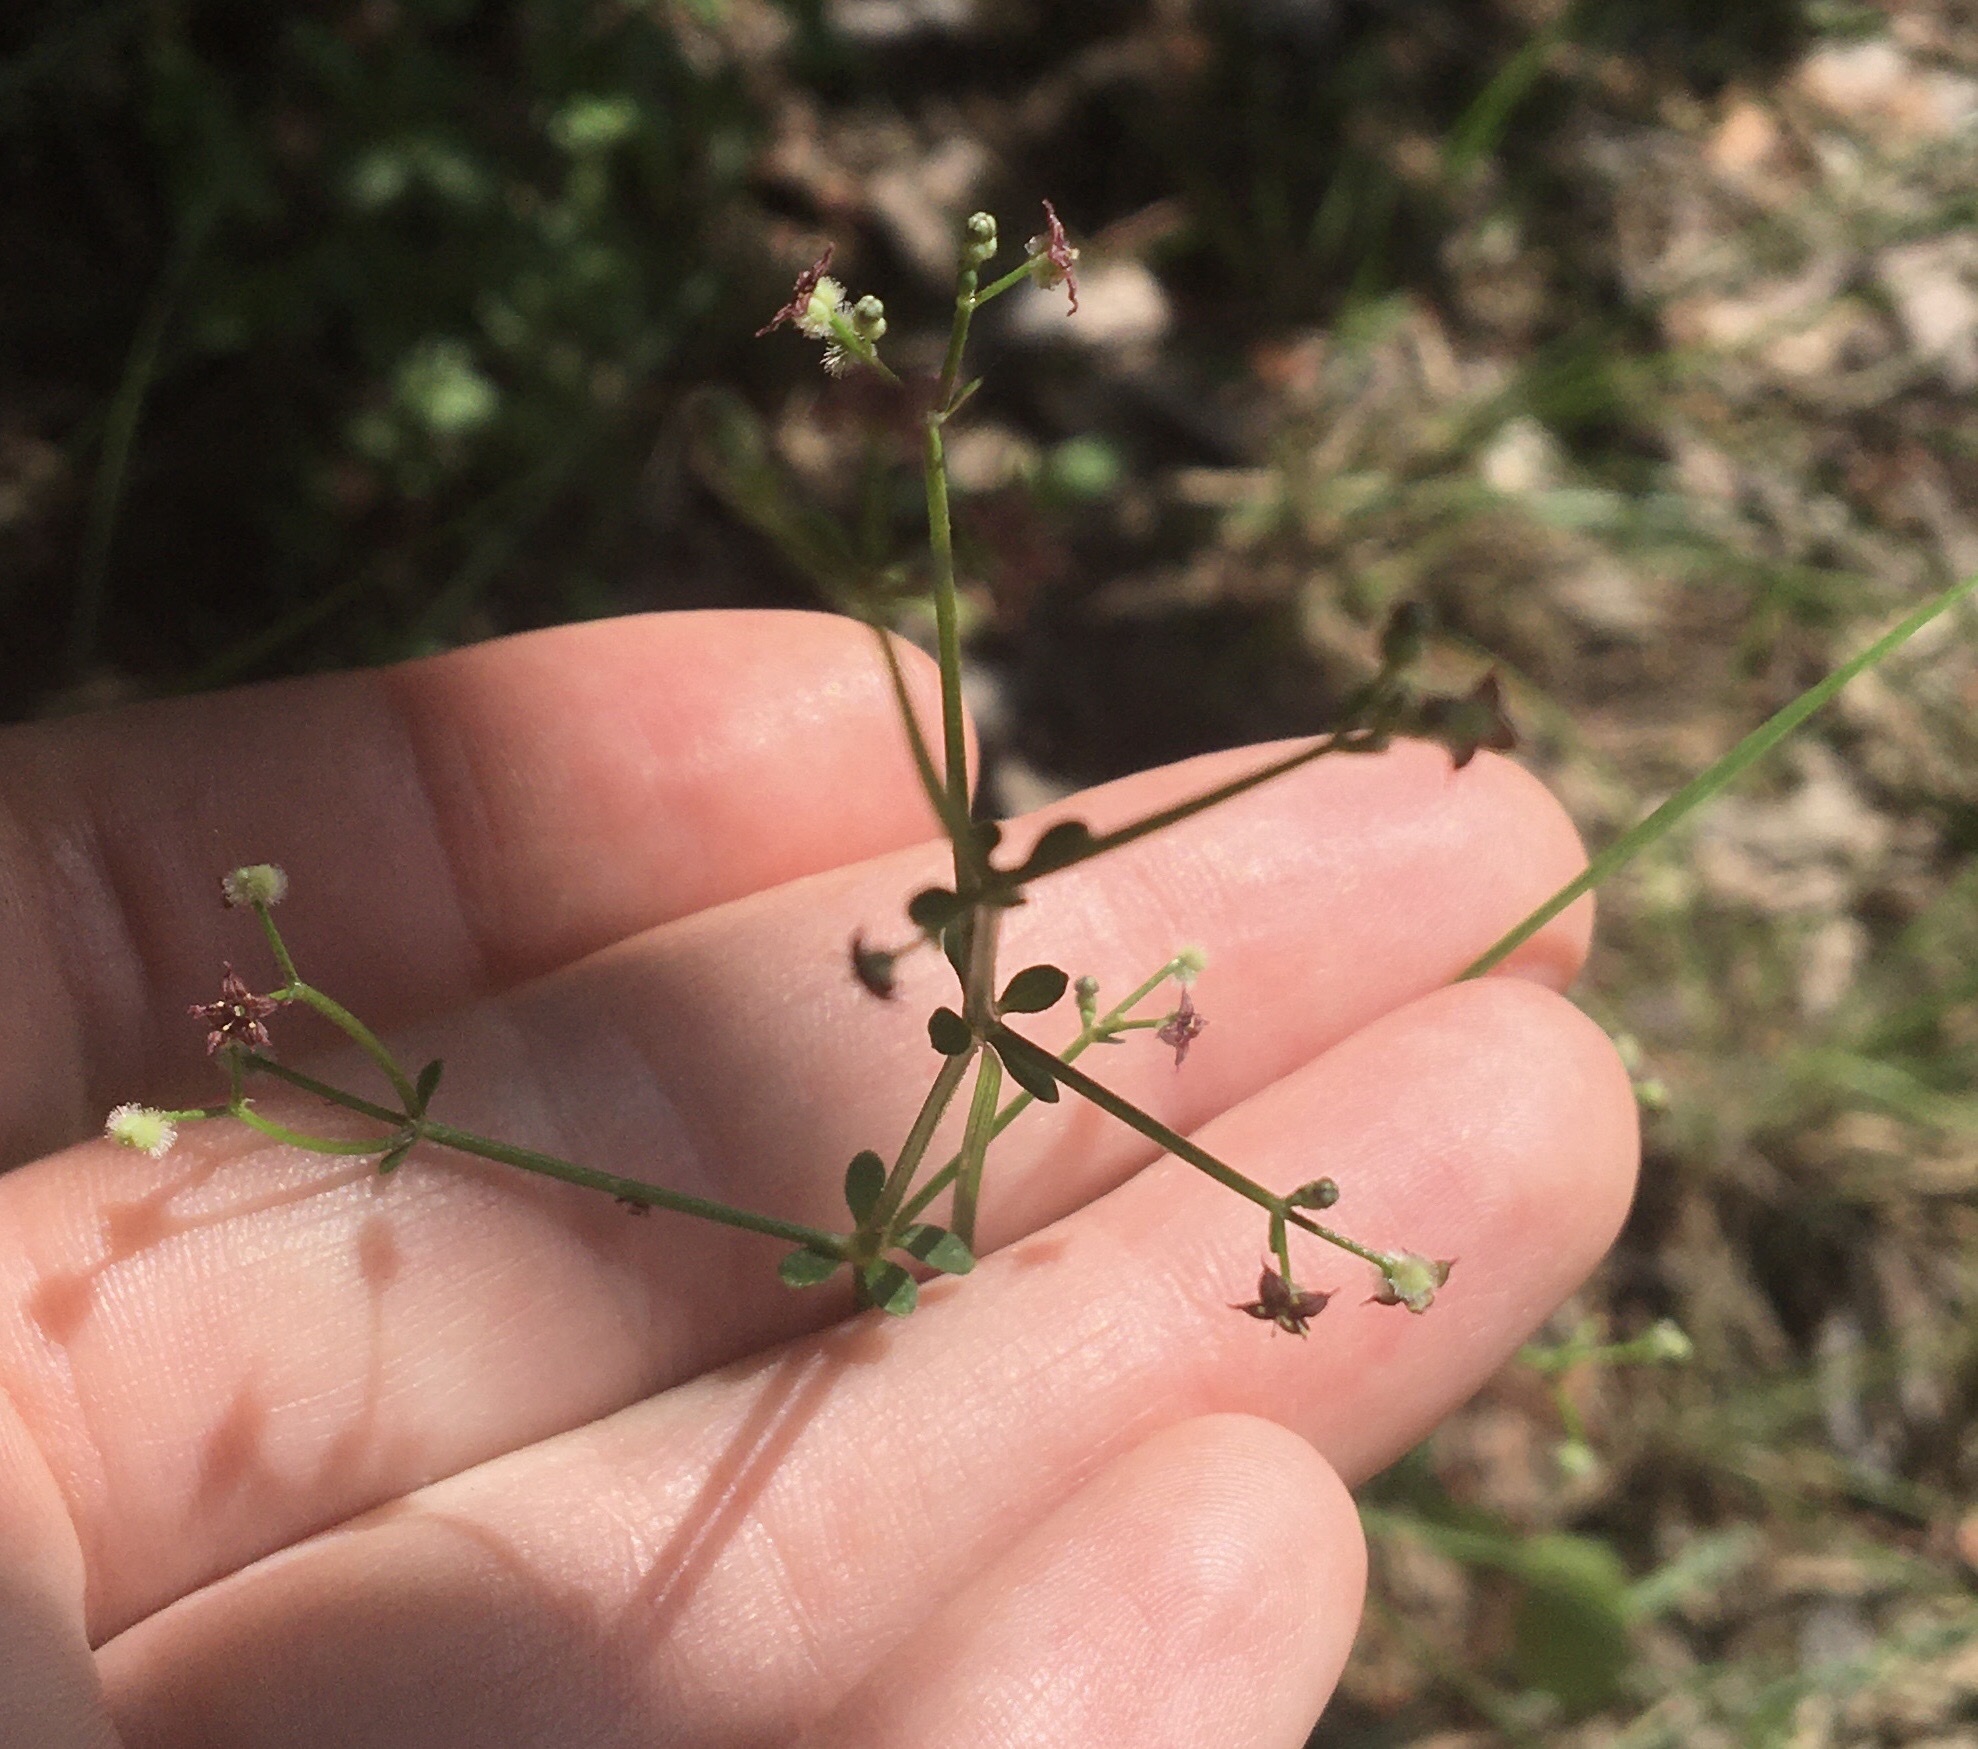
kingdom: Plantae
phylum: Tracheophyta
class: Magnoliopsida
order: Gentianales
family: Rubiaceae
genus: Galium
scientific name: Galium pilosum
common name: Hairy bedstraw
